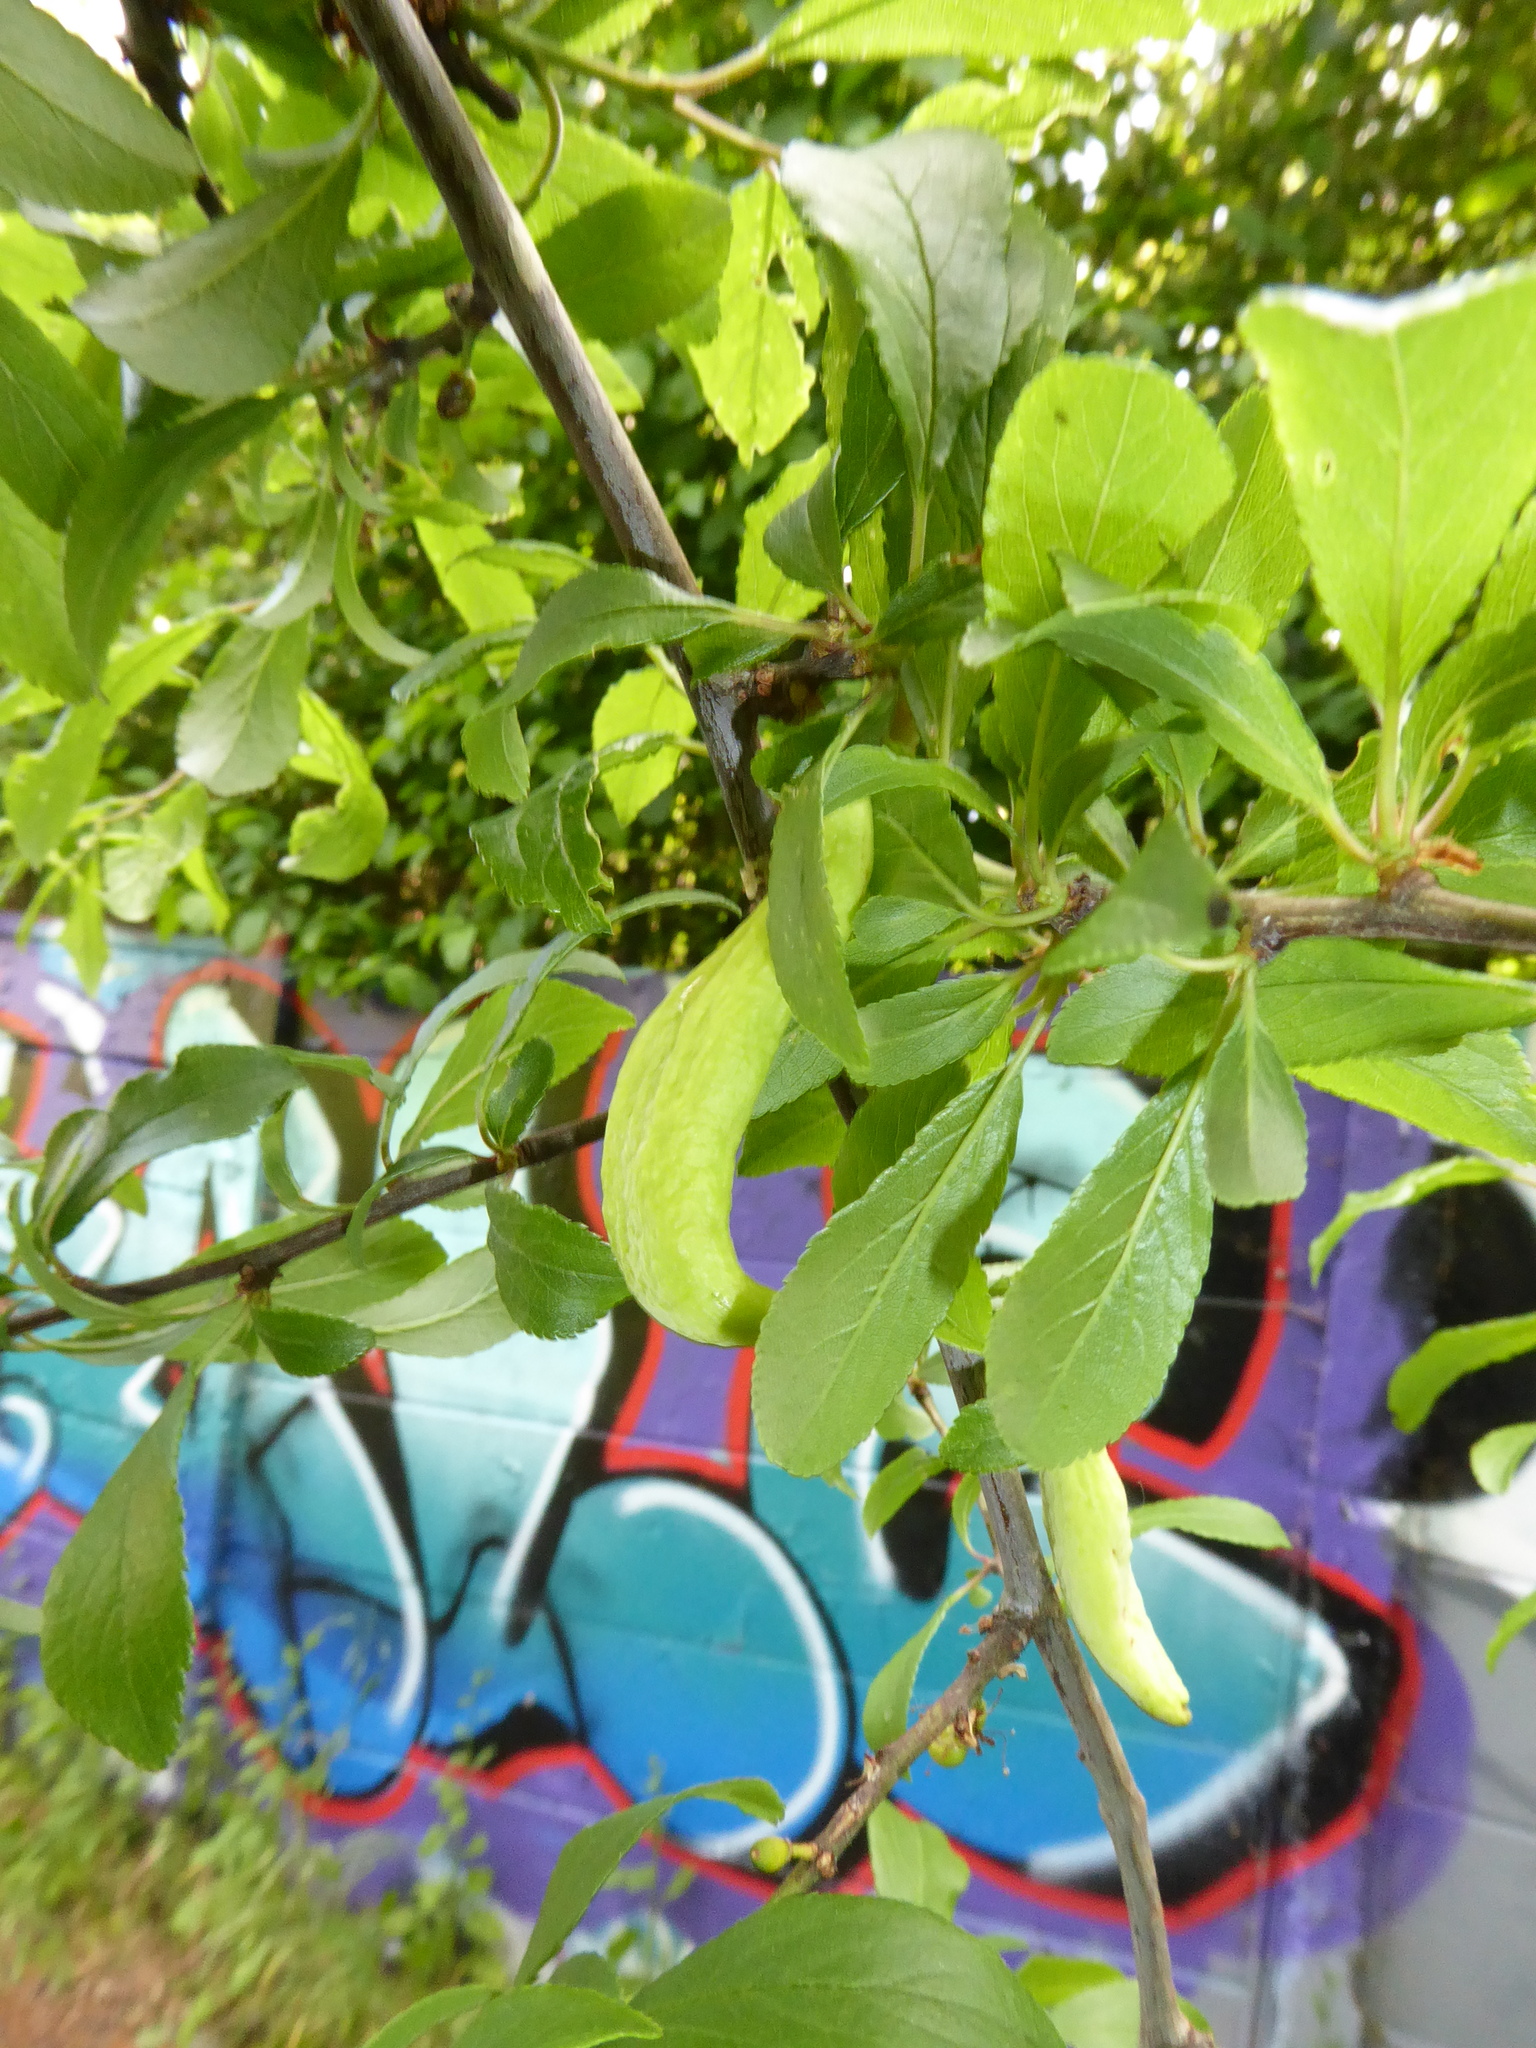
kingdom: Fungi
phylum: Ascomycota
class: Taphrinomycetes
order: Taphrinales
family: Taphrinaceae
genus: Taphrina
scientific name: Taphrina pruni
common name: Pocket plum
